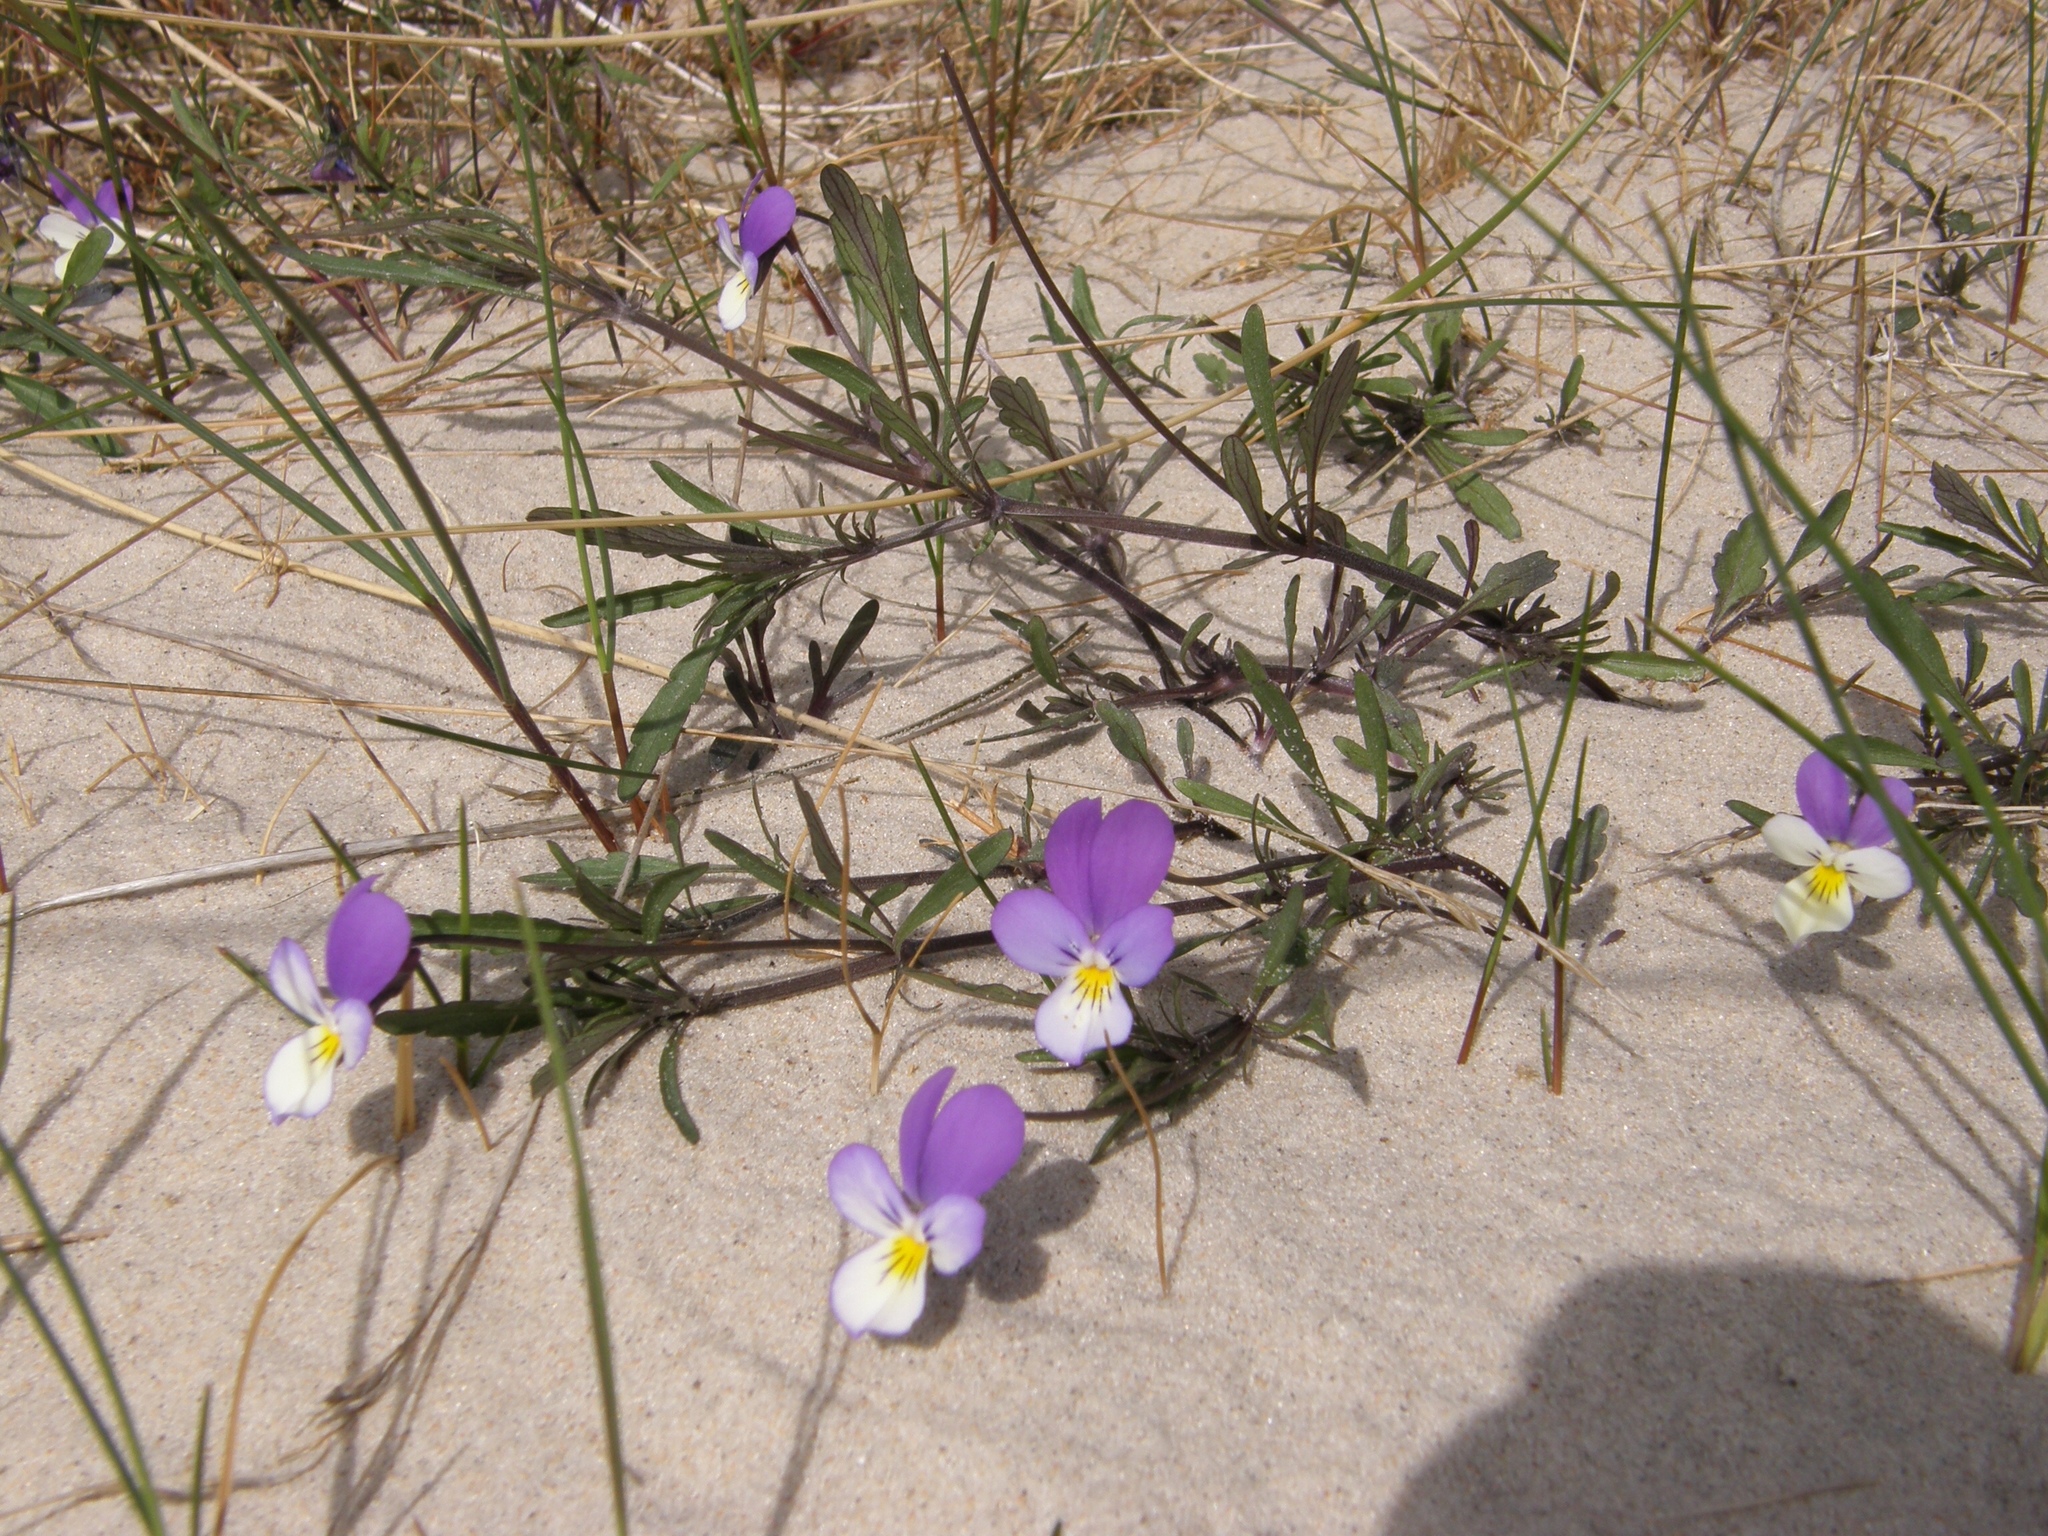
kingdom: Plantae
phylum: Tracheophyta
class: Magnoliopsida
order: Malpighiales
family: Violaceae
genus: Viola
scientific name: Viola tricolor
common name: Pansy
